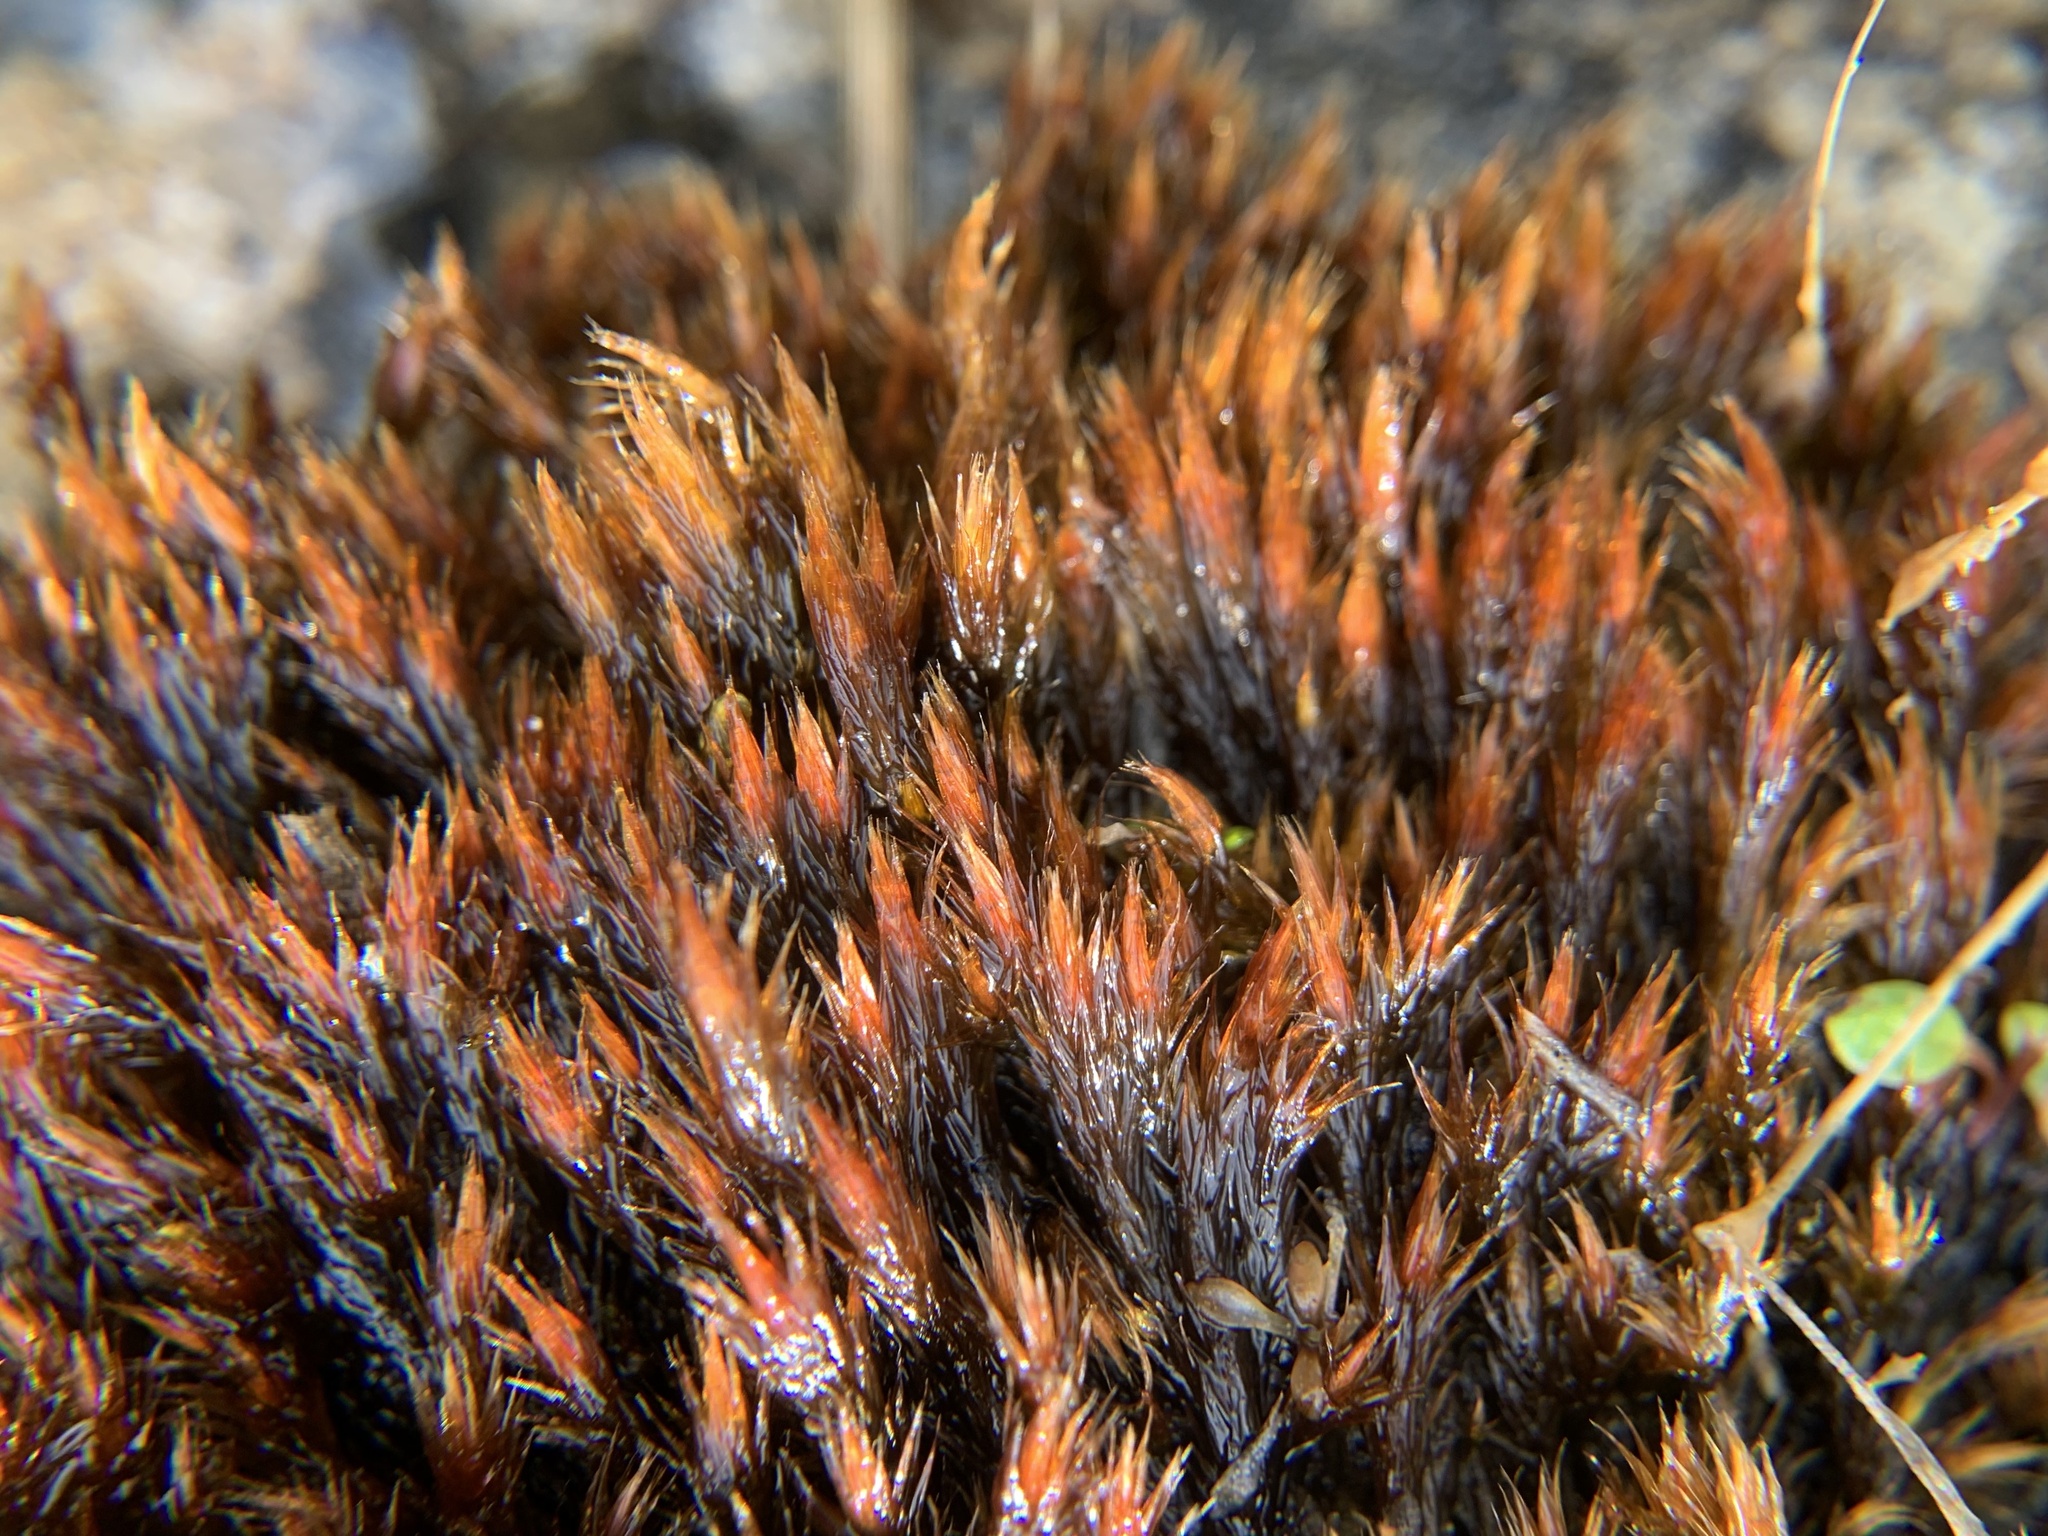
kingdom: Plantae
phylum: Bryophyta
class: Bryopsida
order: Hypnales
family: Plagiotheciaceae
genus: Orthothecium
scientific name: Orthothecium chryseon
